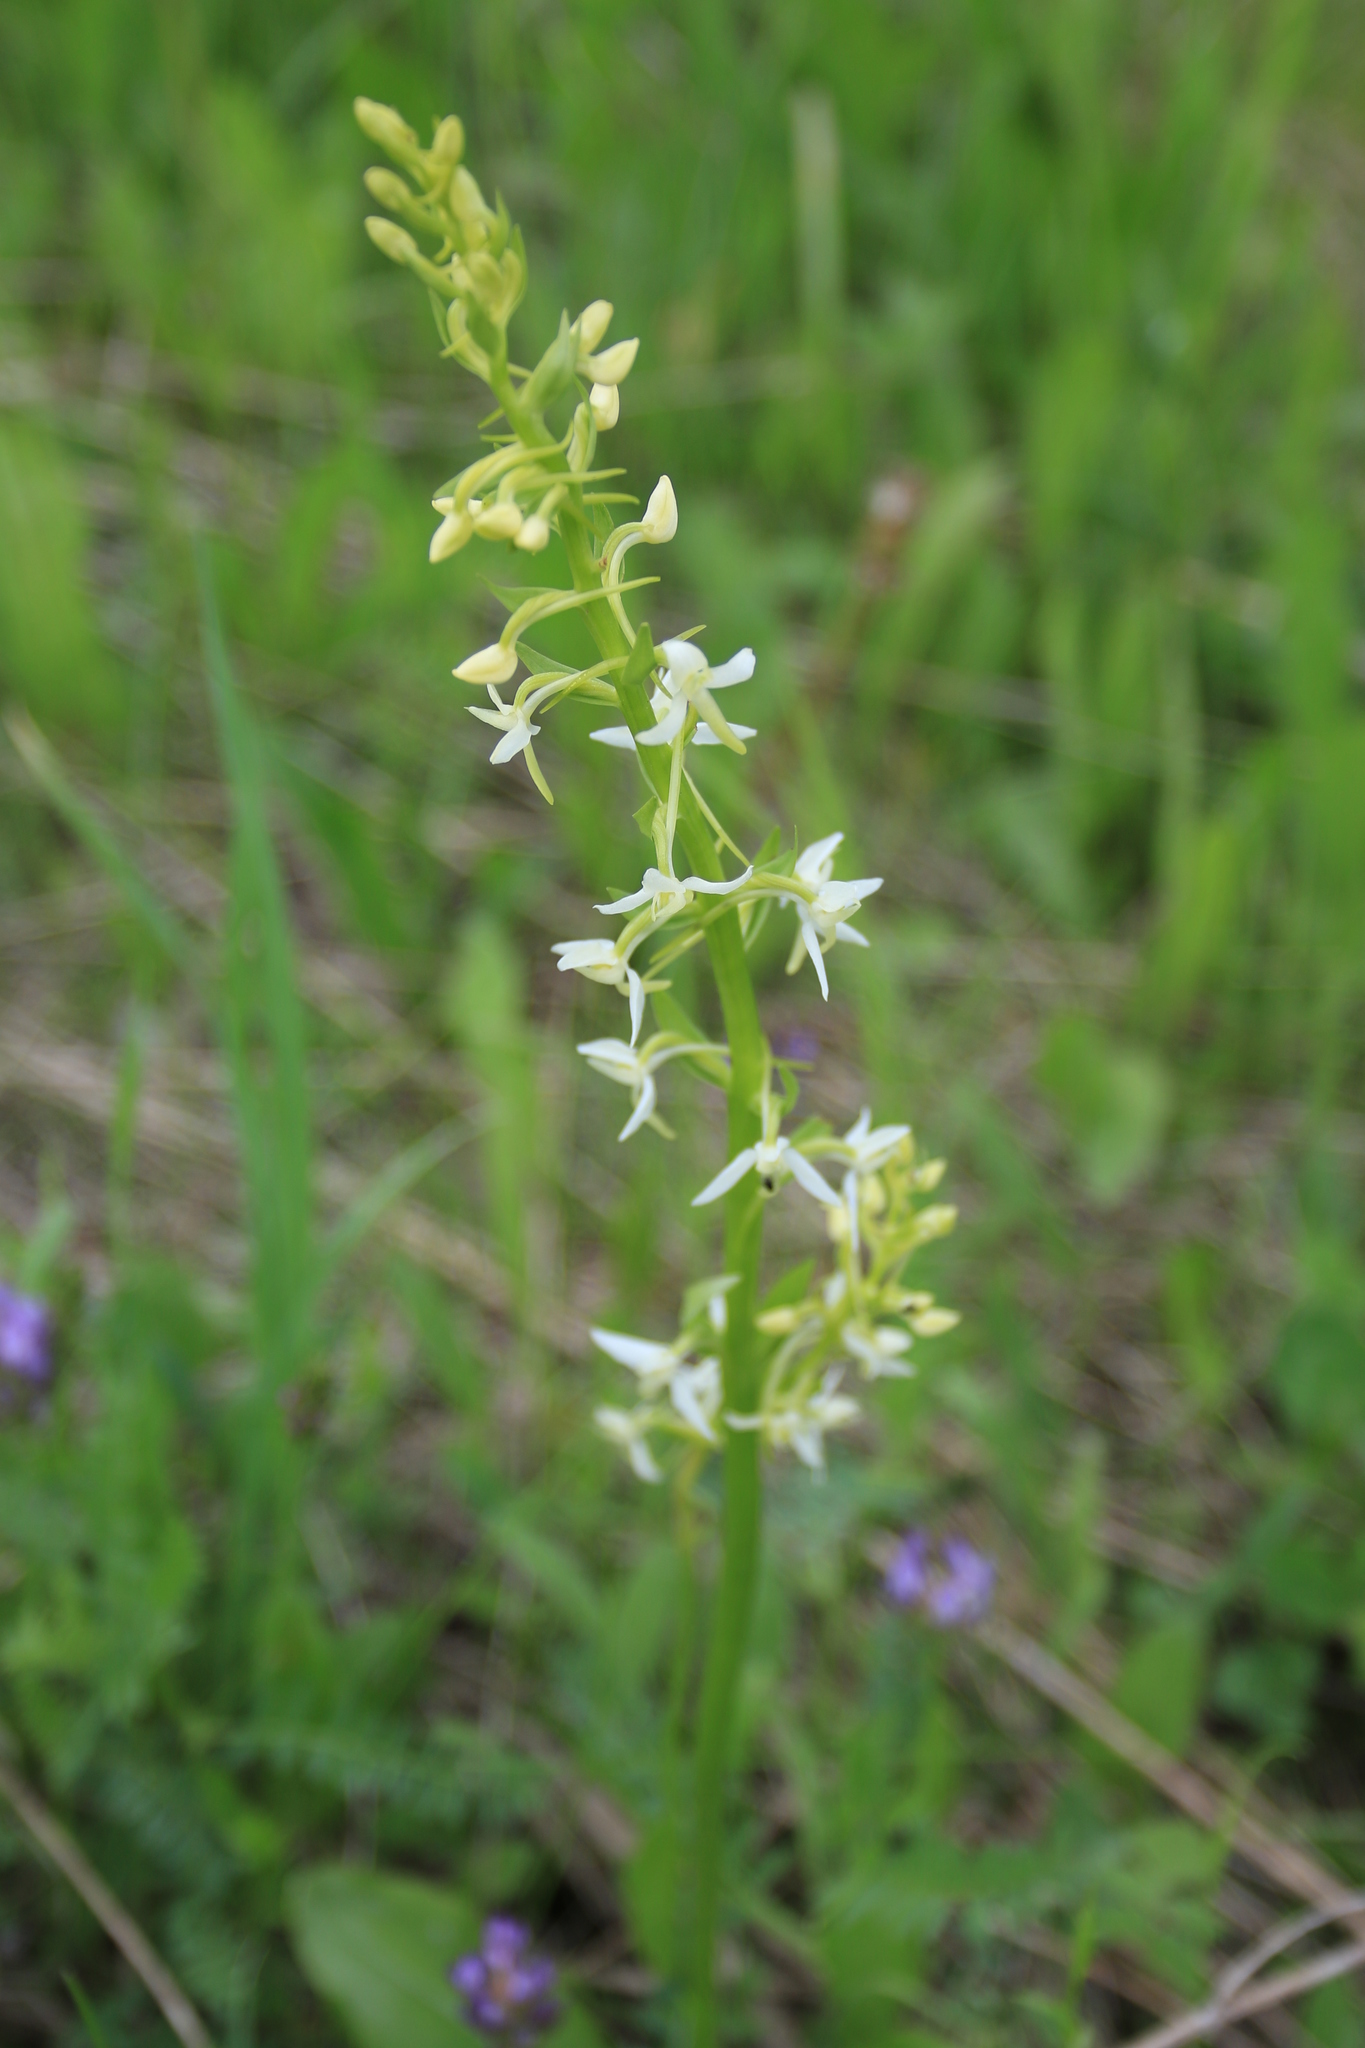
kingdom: Plantae
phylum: Tracheophyta
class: Liliopsida
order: Asparagales
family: Orchidaceae
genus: Platanthera
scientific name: Platanthera bifolia
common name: Lesser butterfly-orchid
